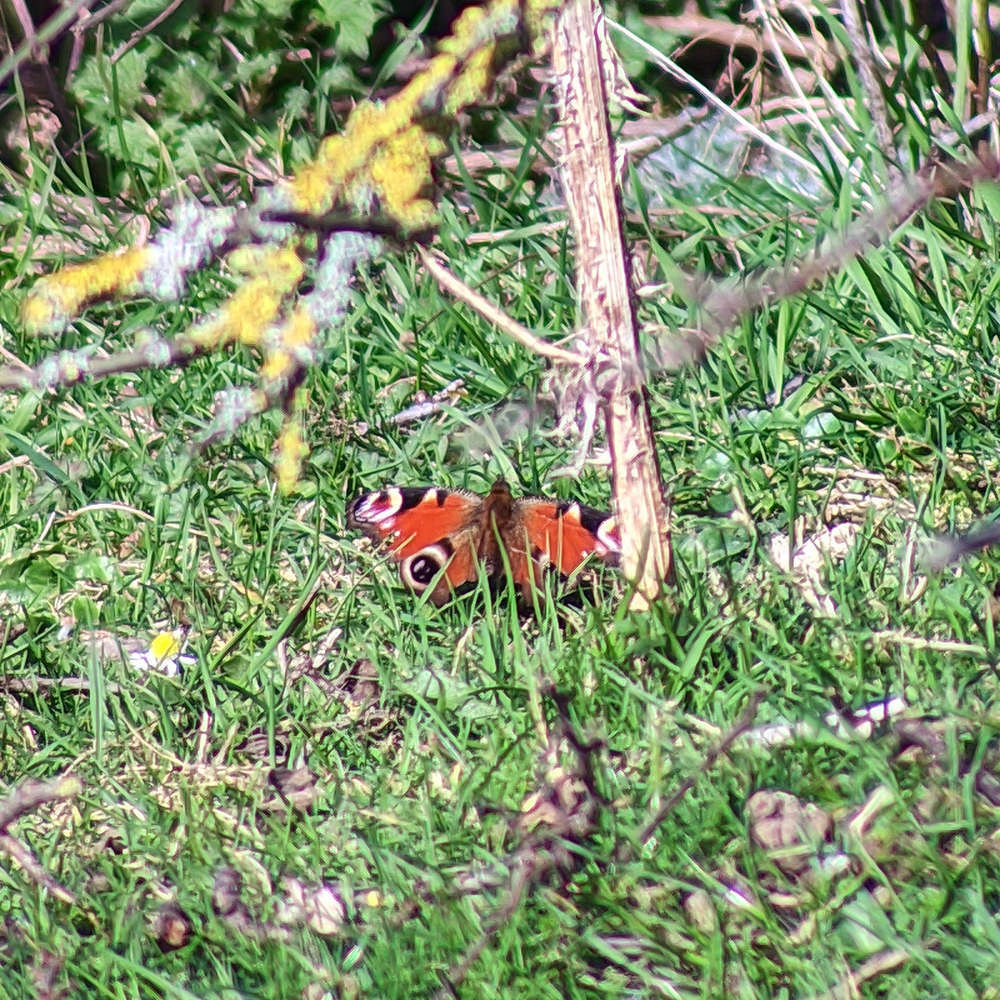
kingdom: Animalia
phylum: Arthropoda
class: Insecta
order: Lepidoptera
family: Nymphalidae
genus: Aglais
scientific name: Aglais io
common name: Peacock
